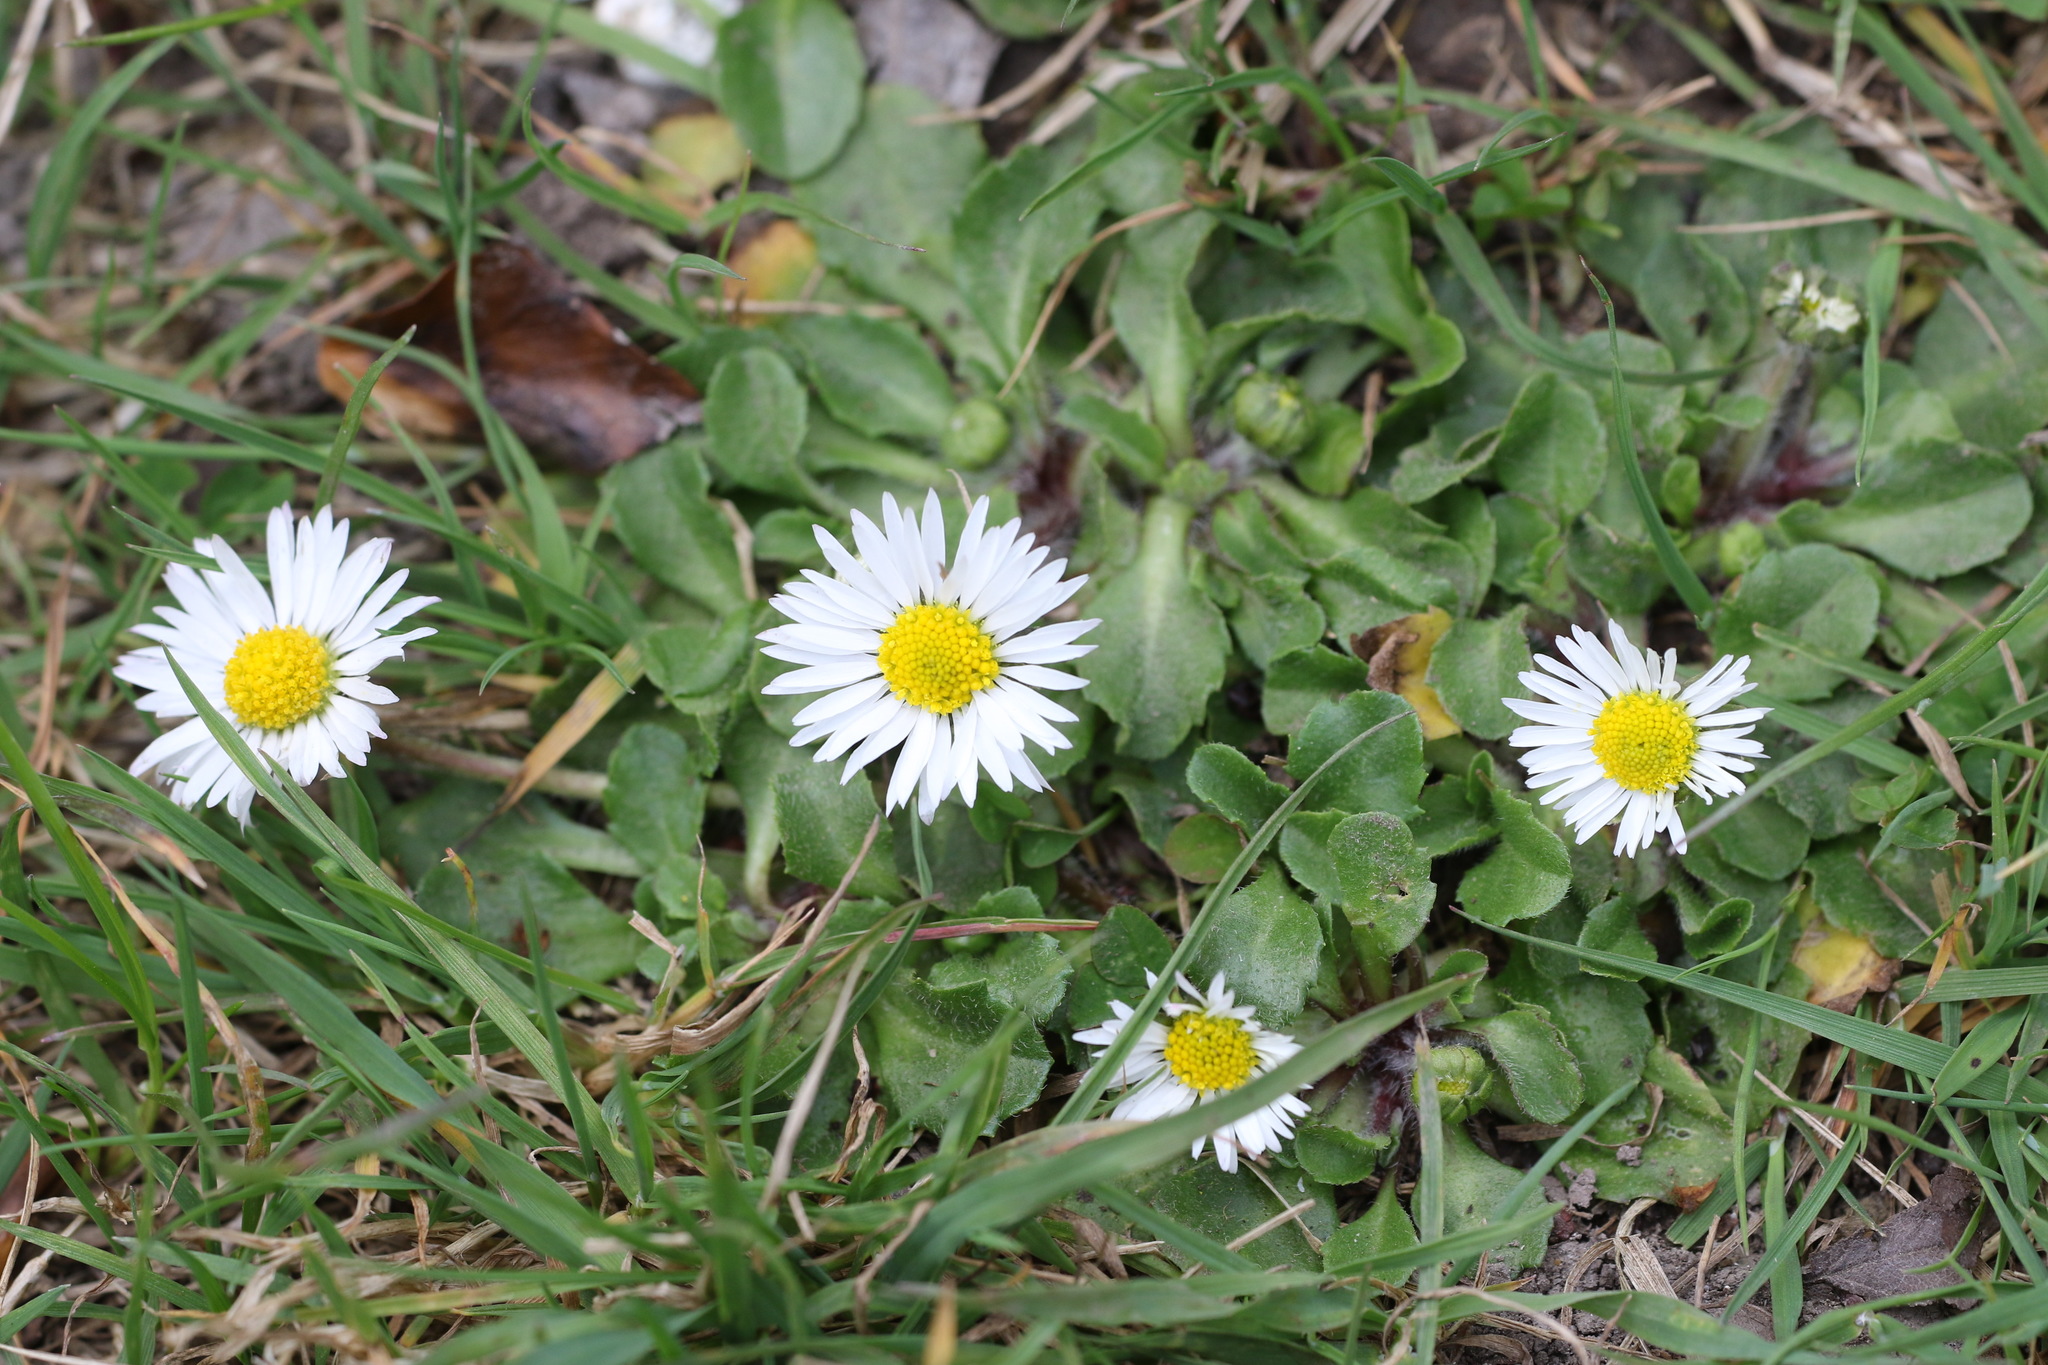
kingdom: Plantae
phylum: Tracheophyta
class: Magnoliopsida
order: Asterales
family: Asteraceae
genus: Bellis
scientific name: Bellis perennis
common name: Lawndaisy
